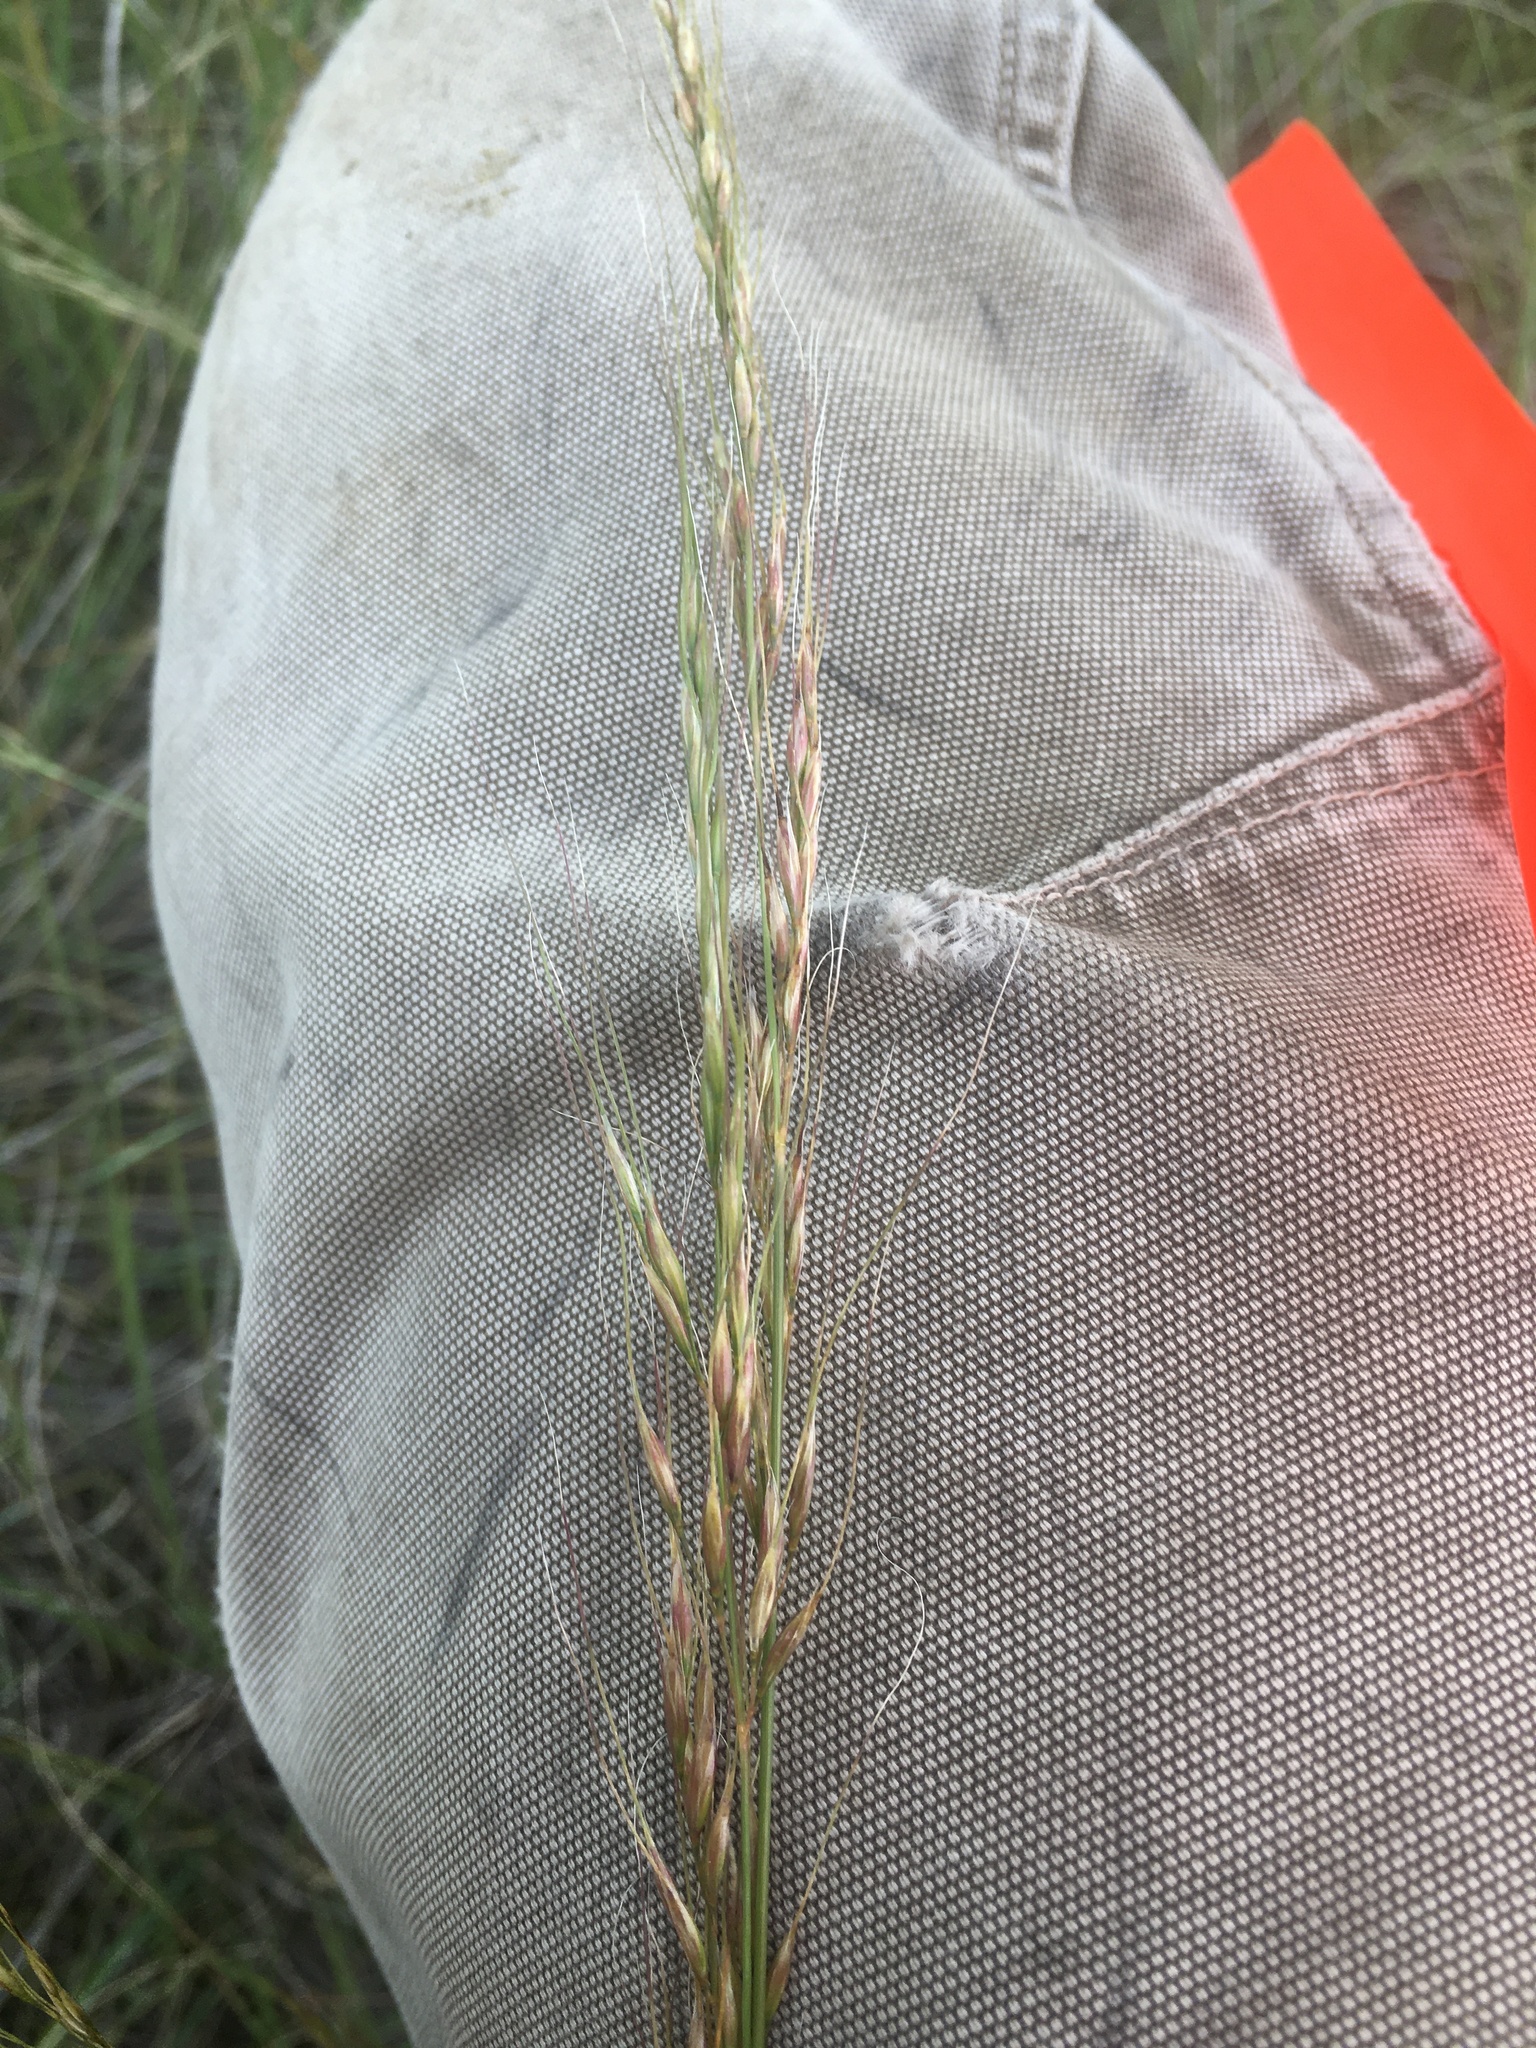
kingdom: Plantae
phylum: Tracheophyta
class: Liliopsida
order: Poales
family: Poaceae
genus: Nassella
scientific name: Nassella viridula
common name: Green needlegrass
